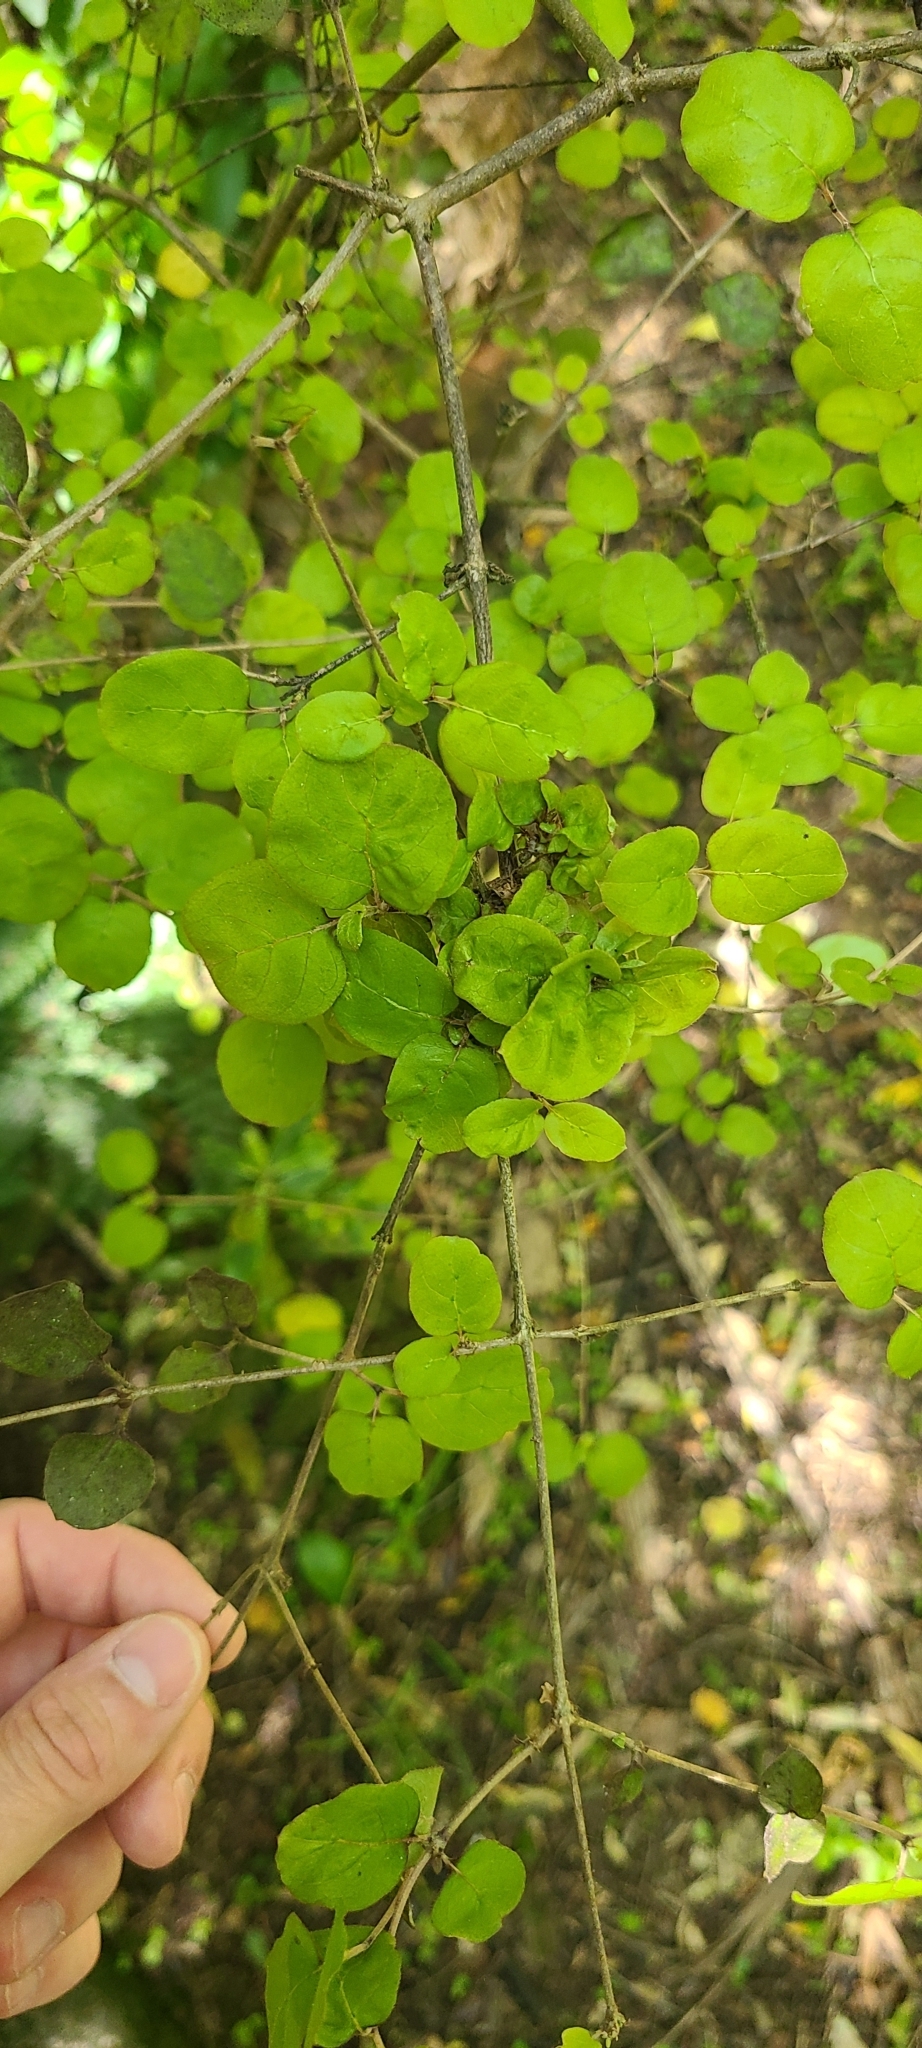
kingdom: Plantae
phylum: Tracheophyta
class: Magnoliopsida
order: Gentianales
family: Rubiaceae
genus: Coprosma
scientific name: Coprosma rotundifolia
